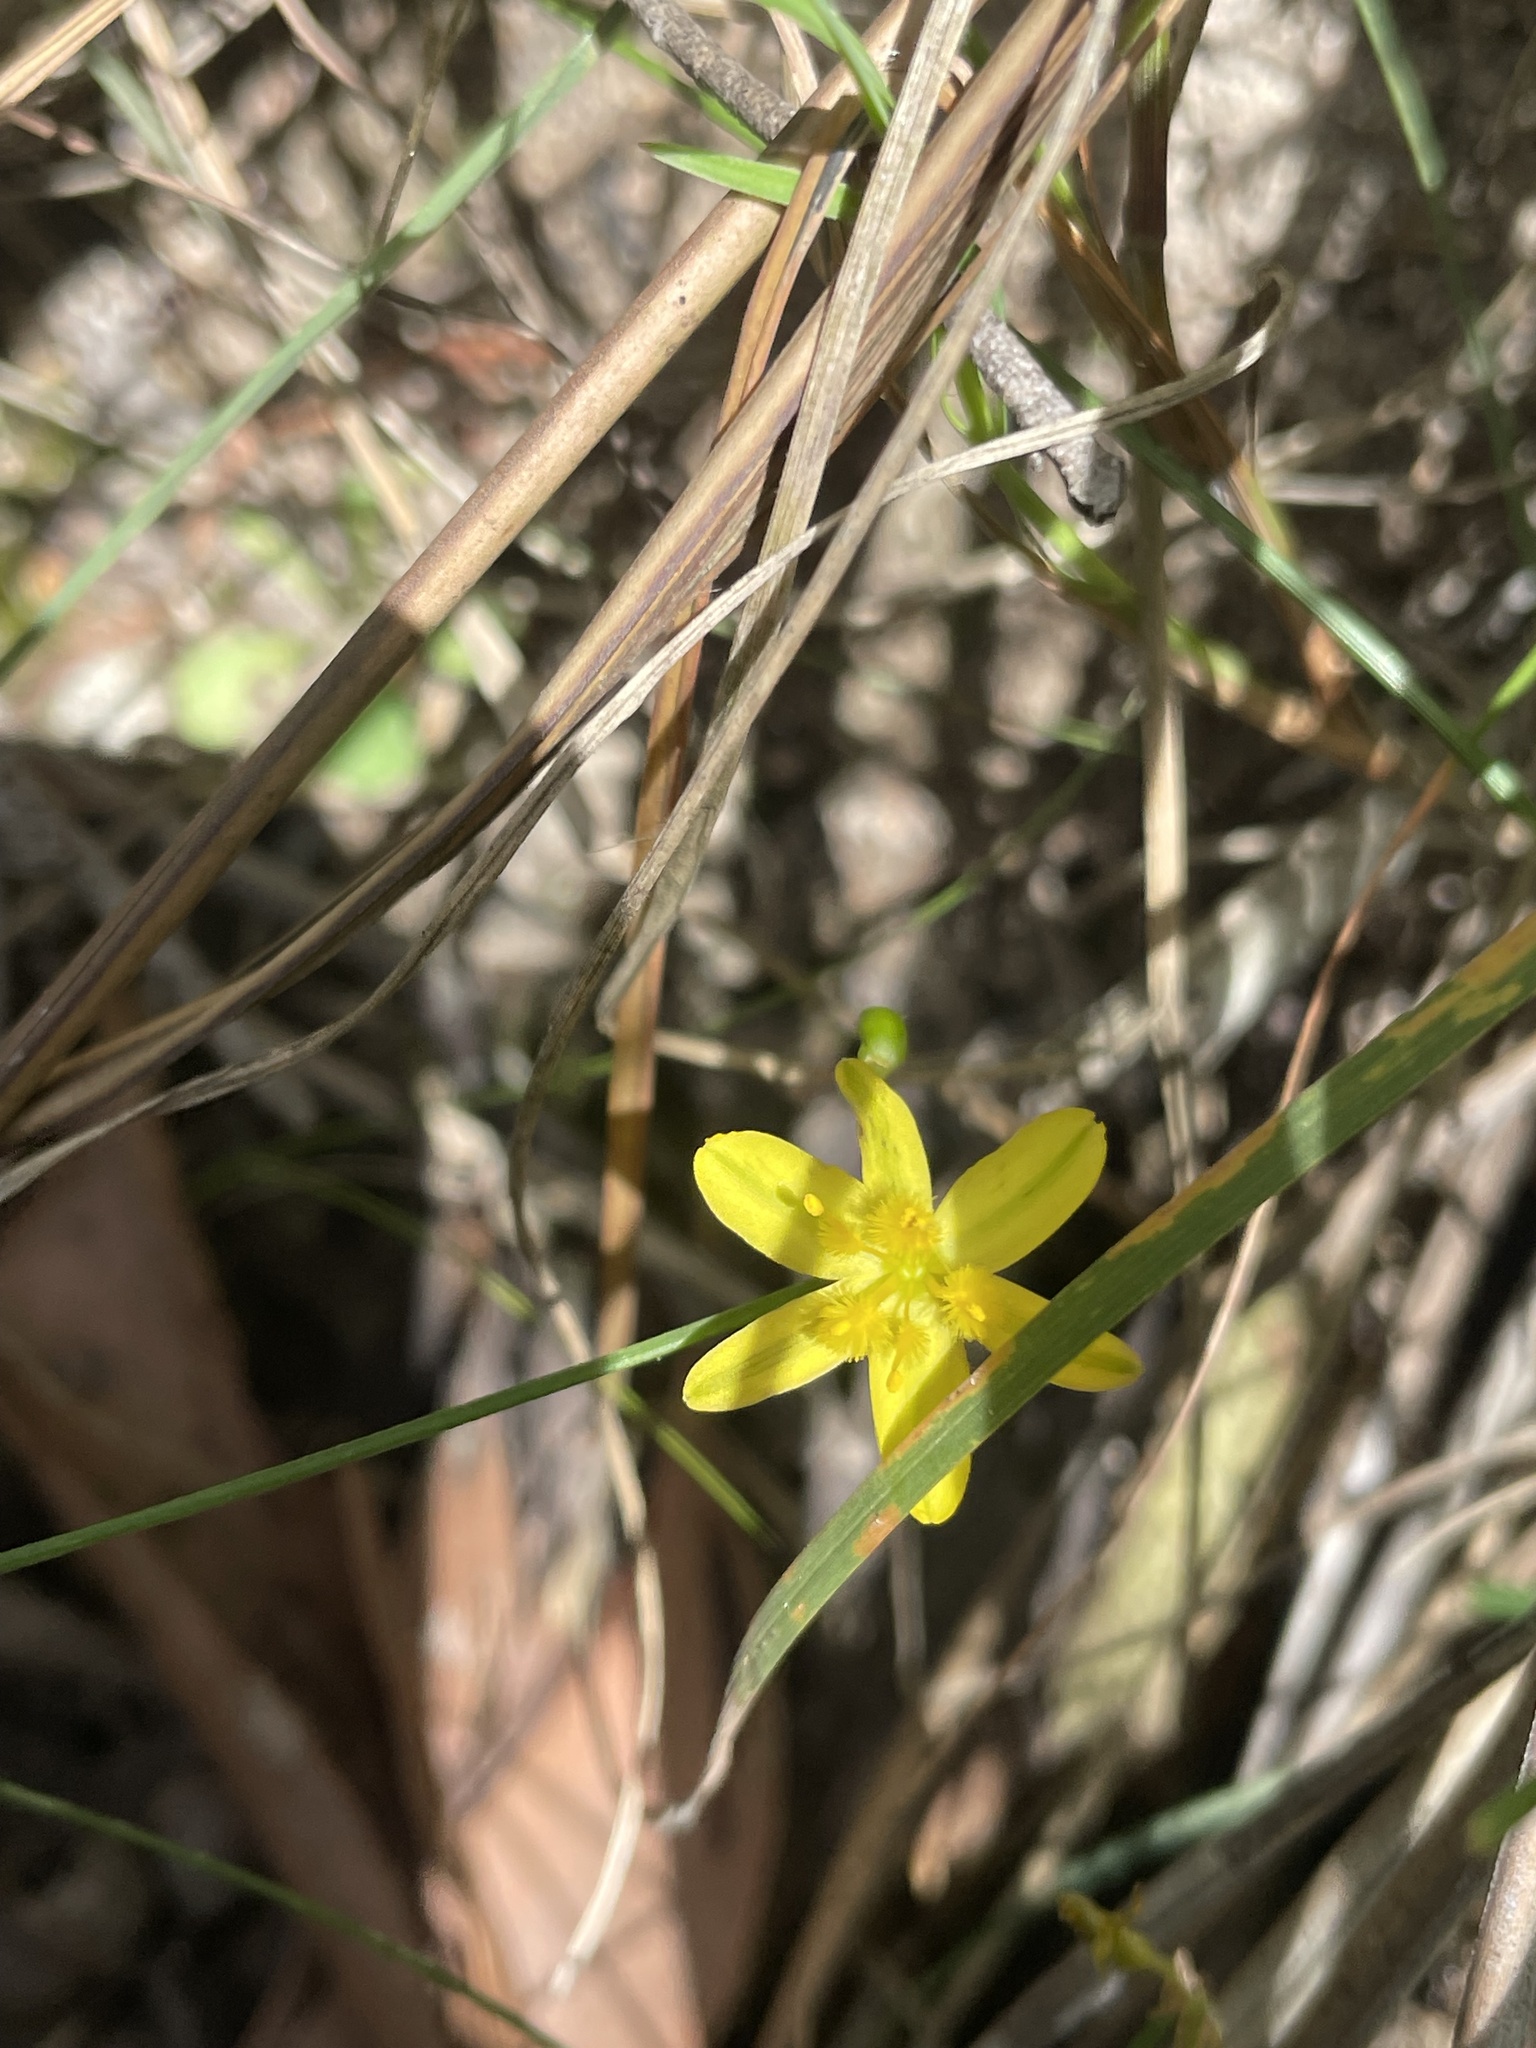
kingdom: Plantae
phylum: Tracheophyta
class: Liliopsida
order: Asparagales
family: Asphodelaceae
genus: Tricoryne
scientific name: Tricoryne elatior
